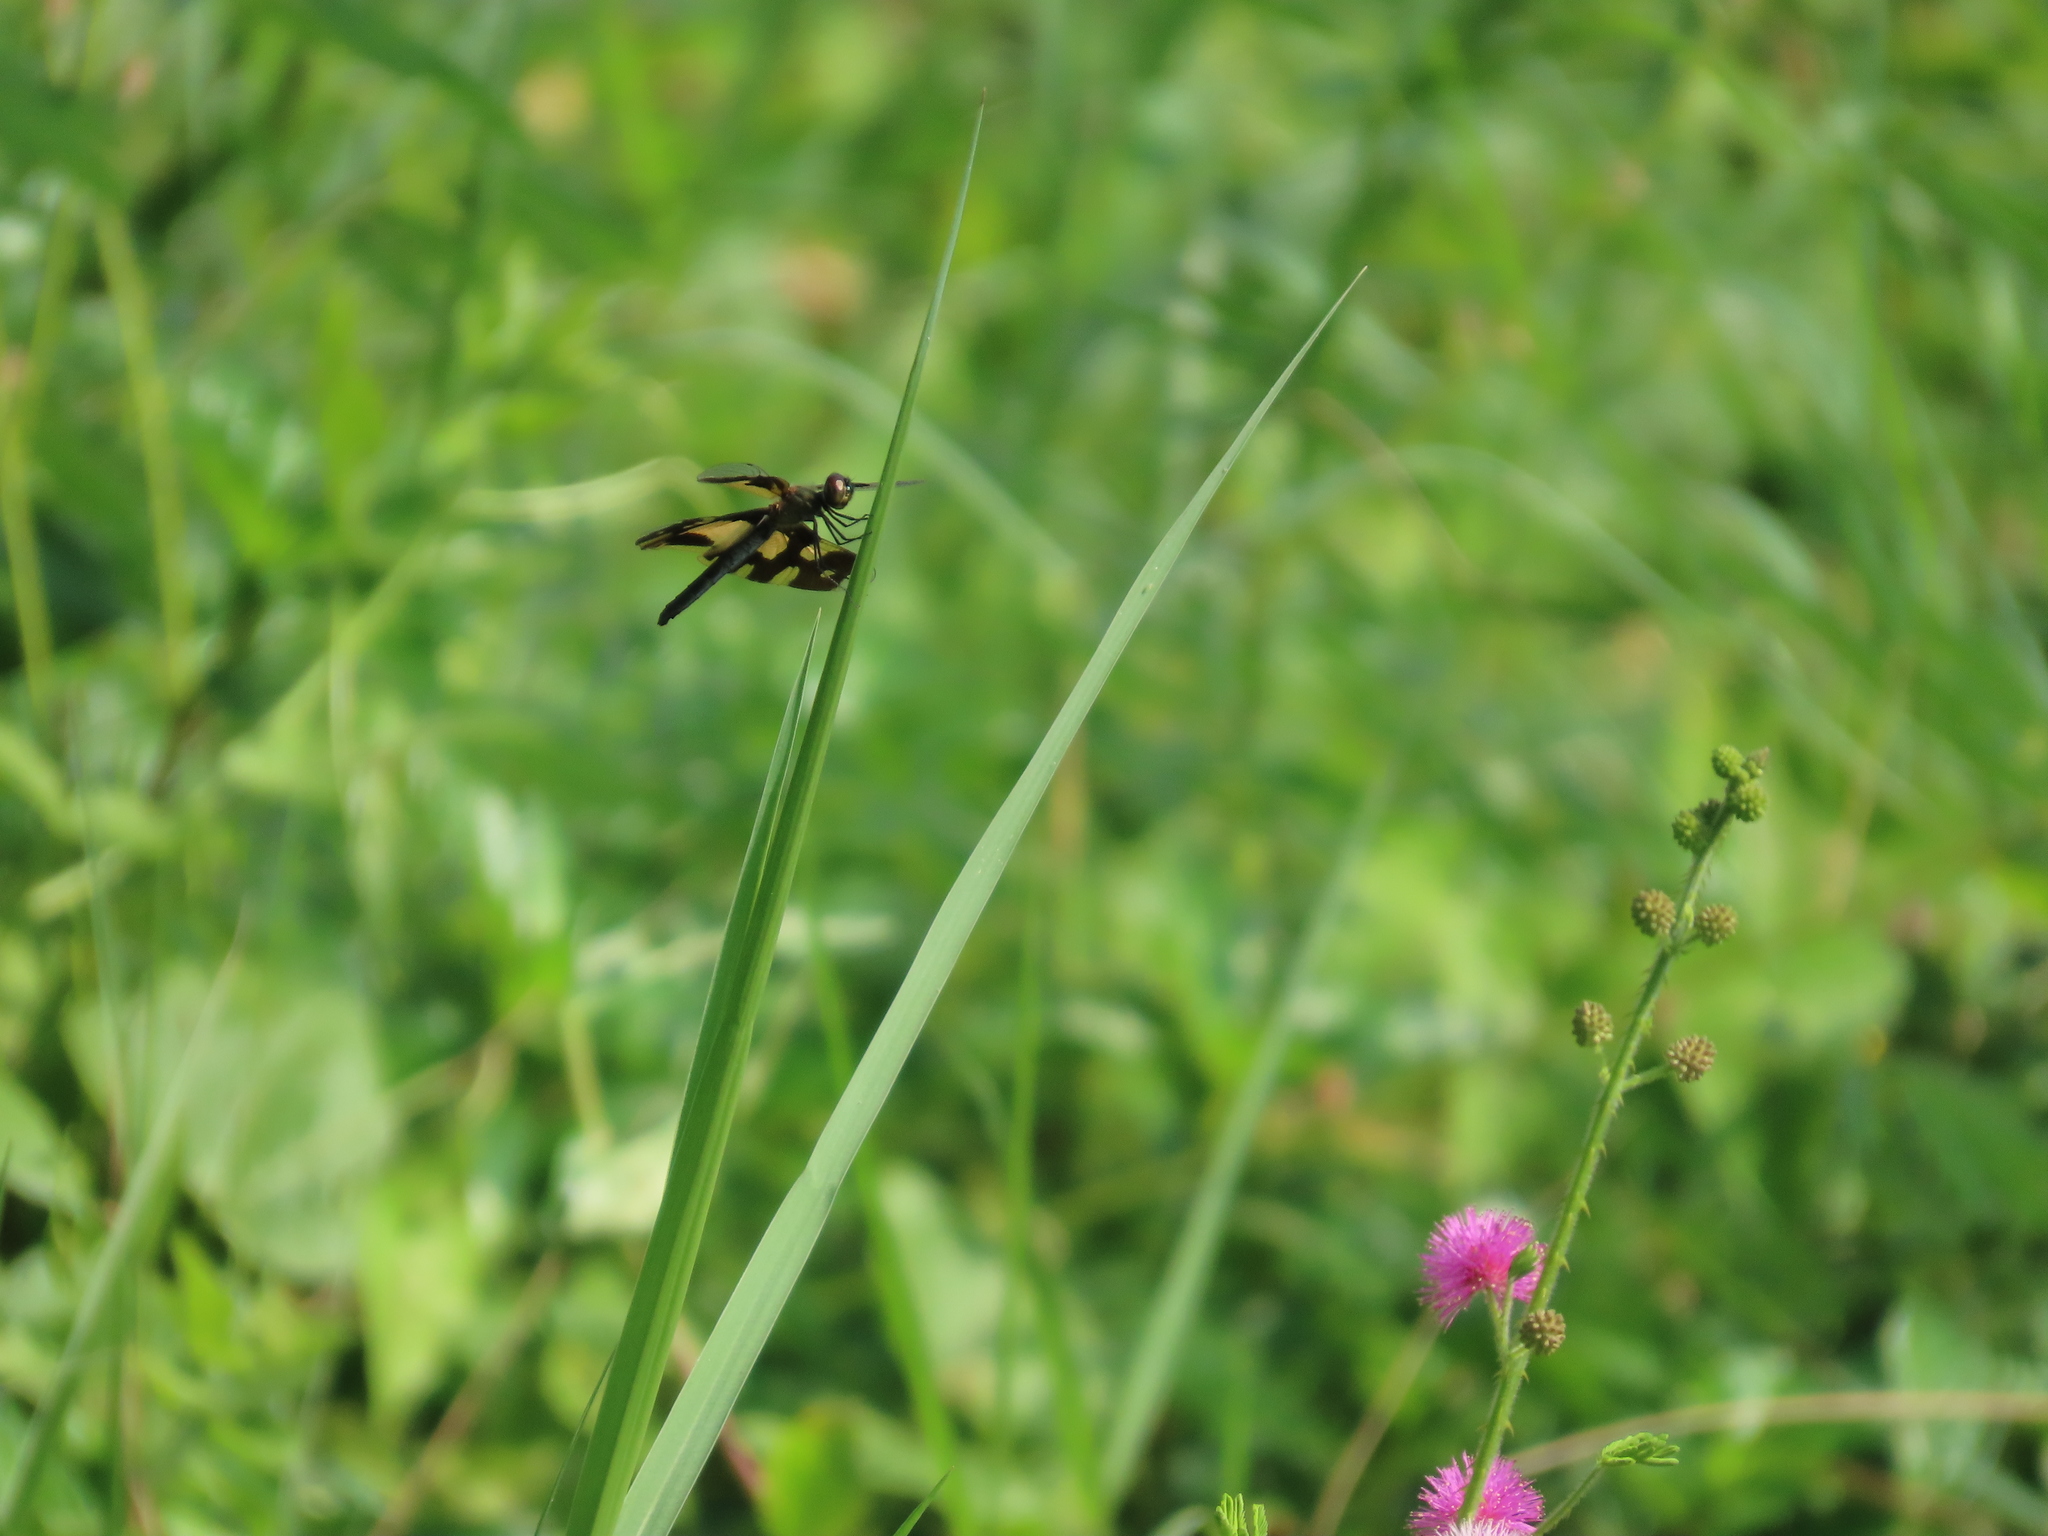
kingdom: Animalia
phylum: Arthropoda
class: Insecta
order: Odonata
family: Libellulidae
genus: Rhyothemis
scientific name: Rhyothemis variegata
